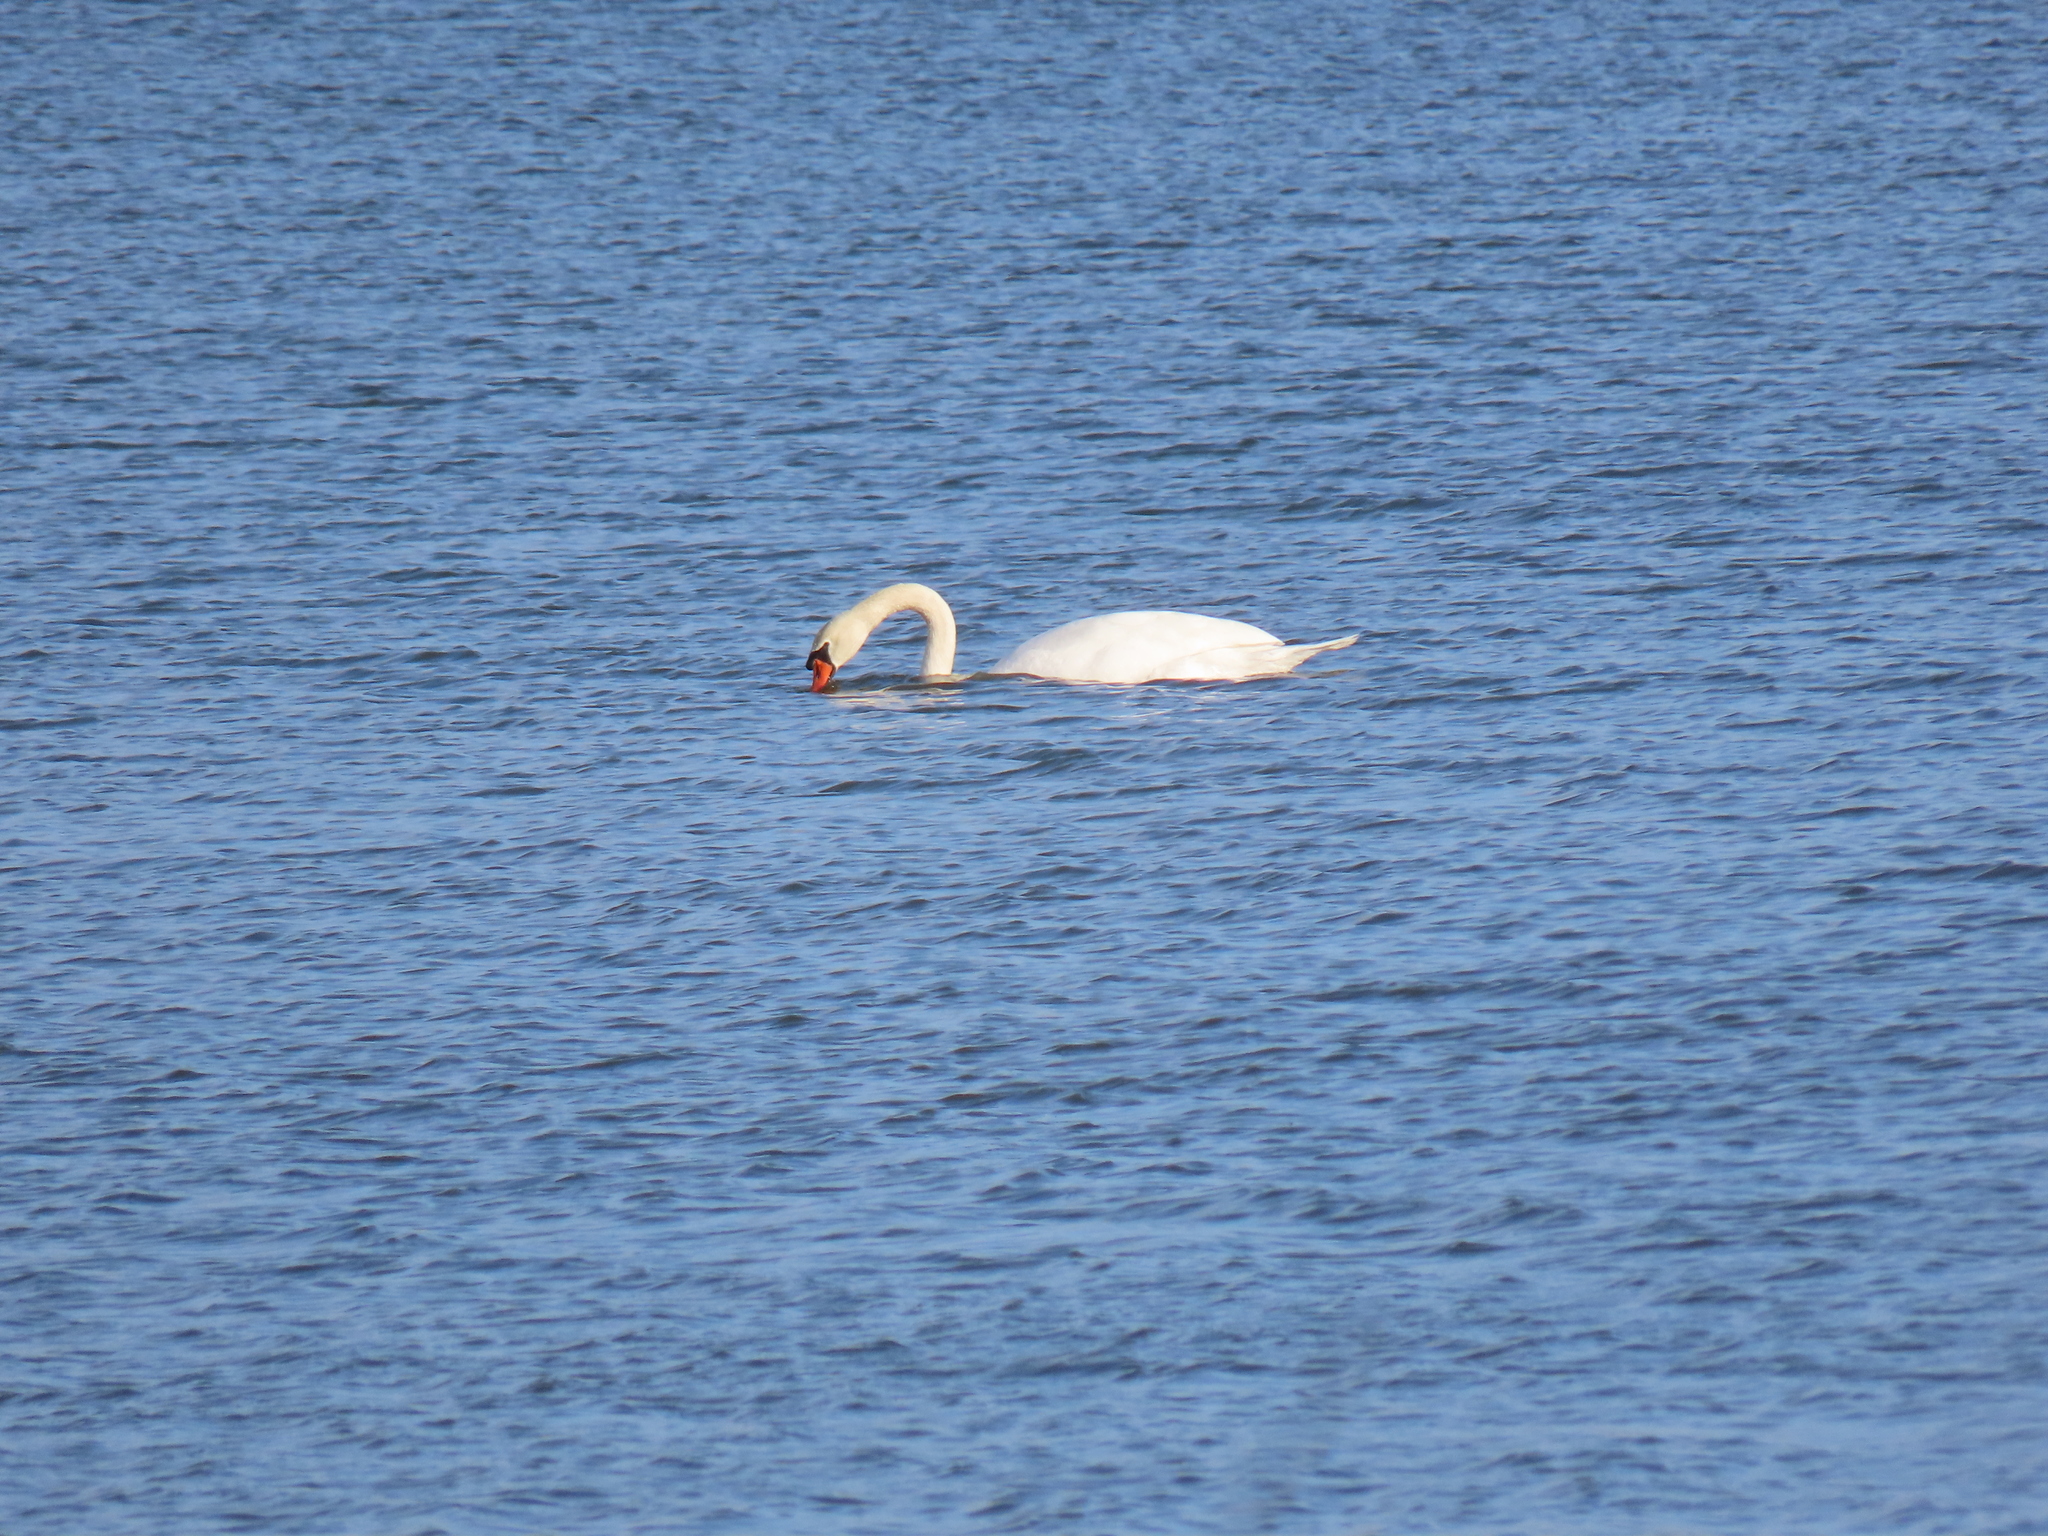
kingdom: Animalia
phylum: Chordata
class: Aves
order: Anseriformes
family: Anatidae
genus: Cygnus
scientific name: Cygnus olor
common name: Mute swan
